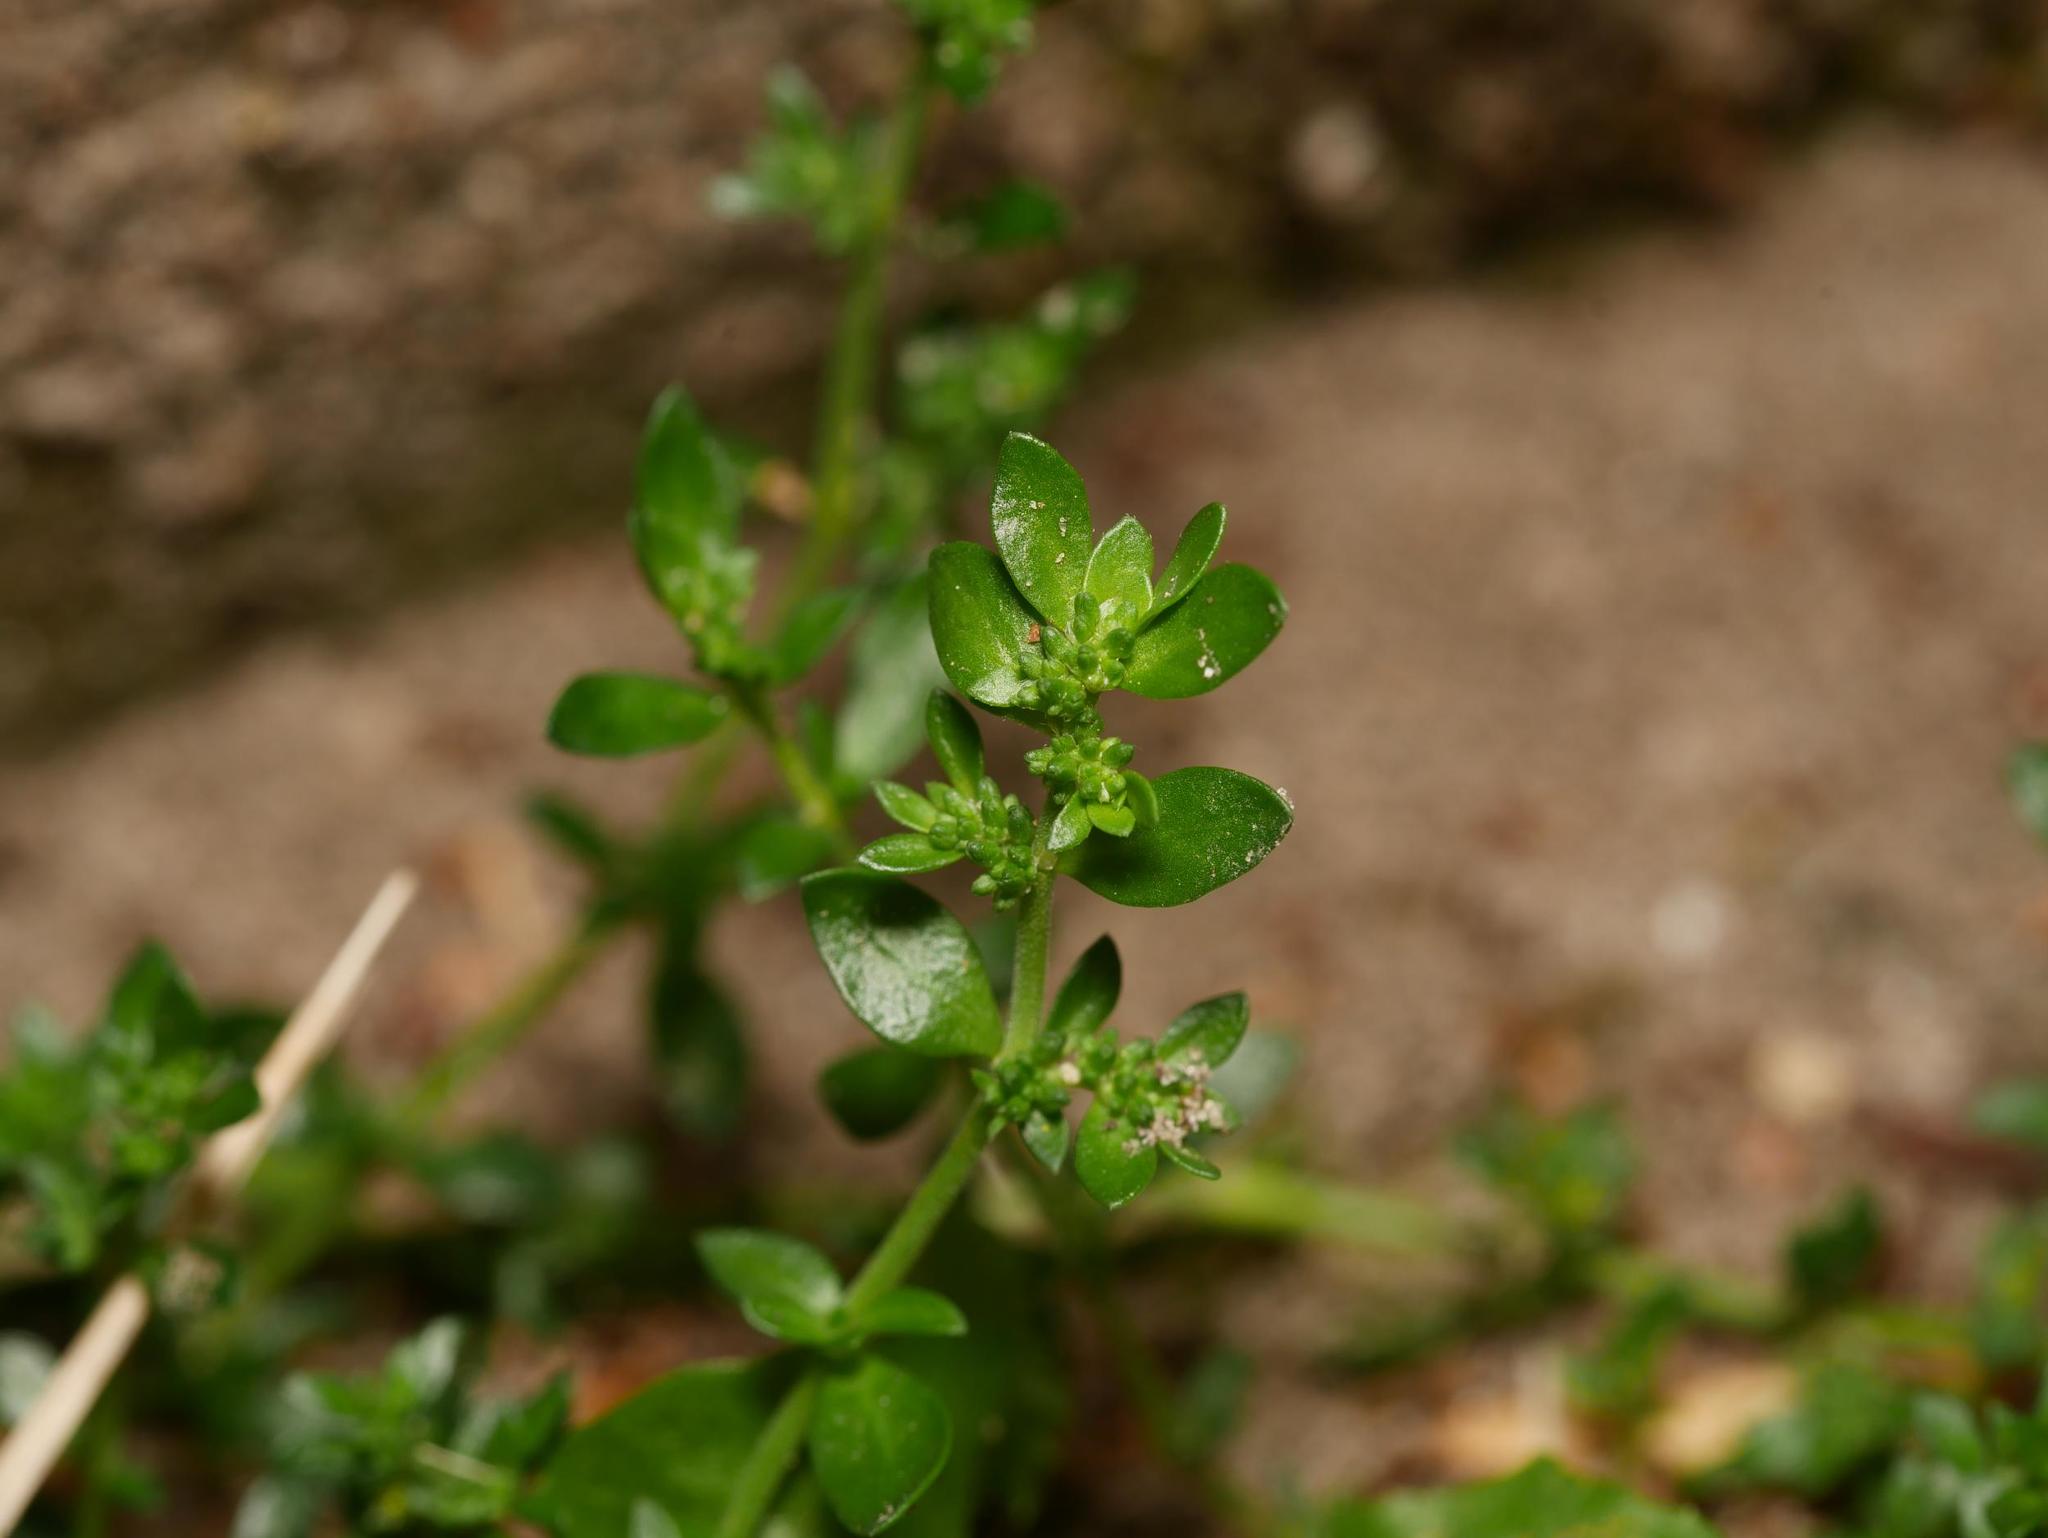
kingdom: Plantae
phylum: Tracheophyta
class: Magnoliopsida
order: Caryophyllales
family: Caryophyllaceae
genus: Herniaria
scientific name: Herniaria glabra
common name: Smooth rupturewort
